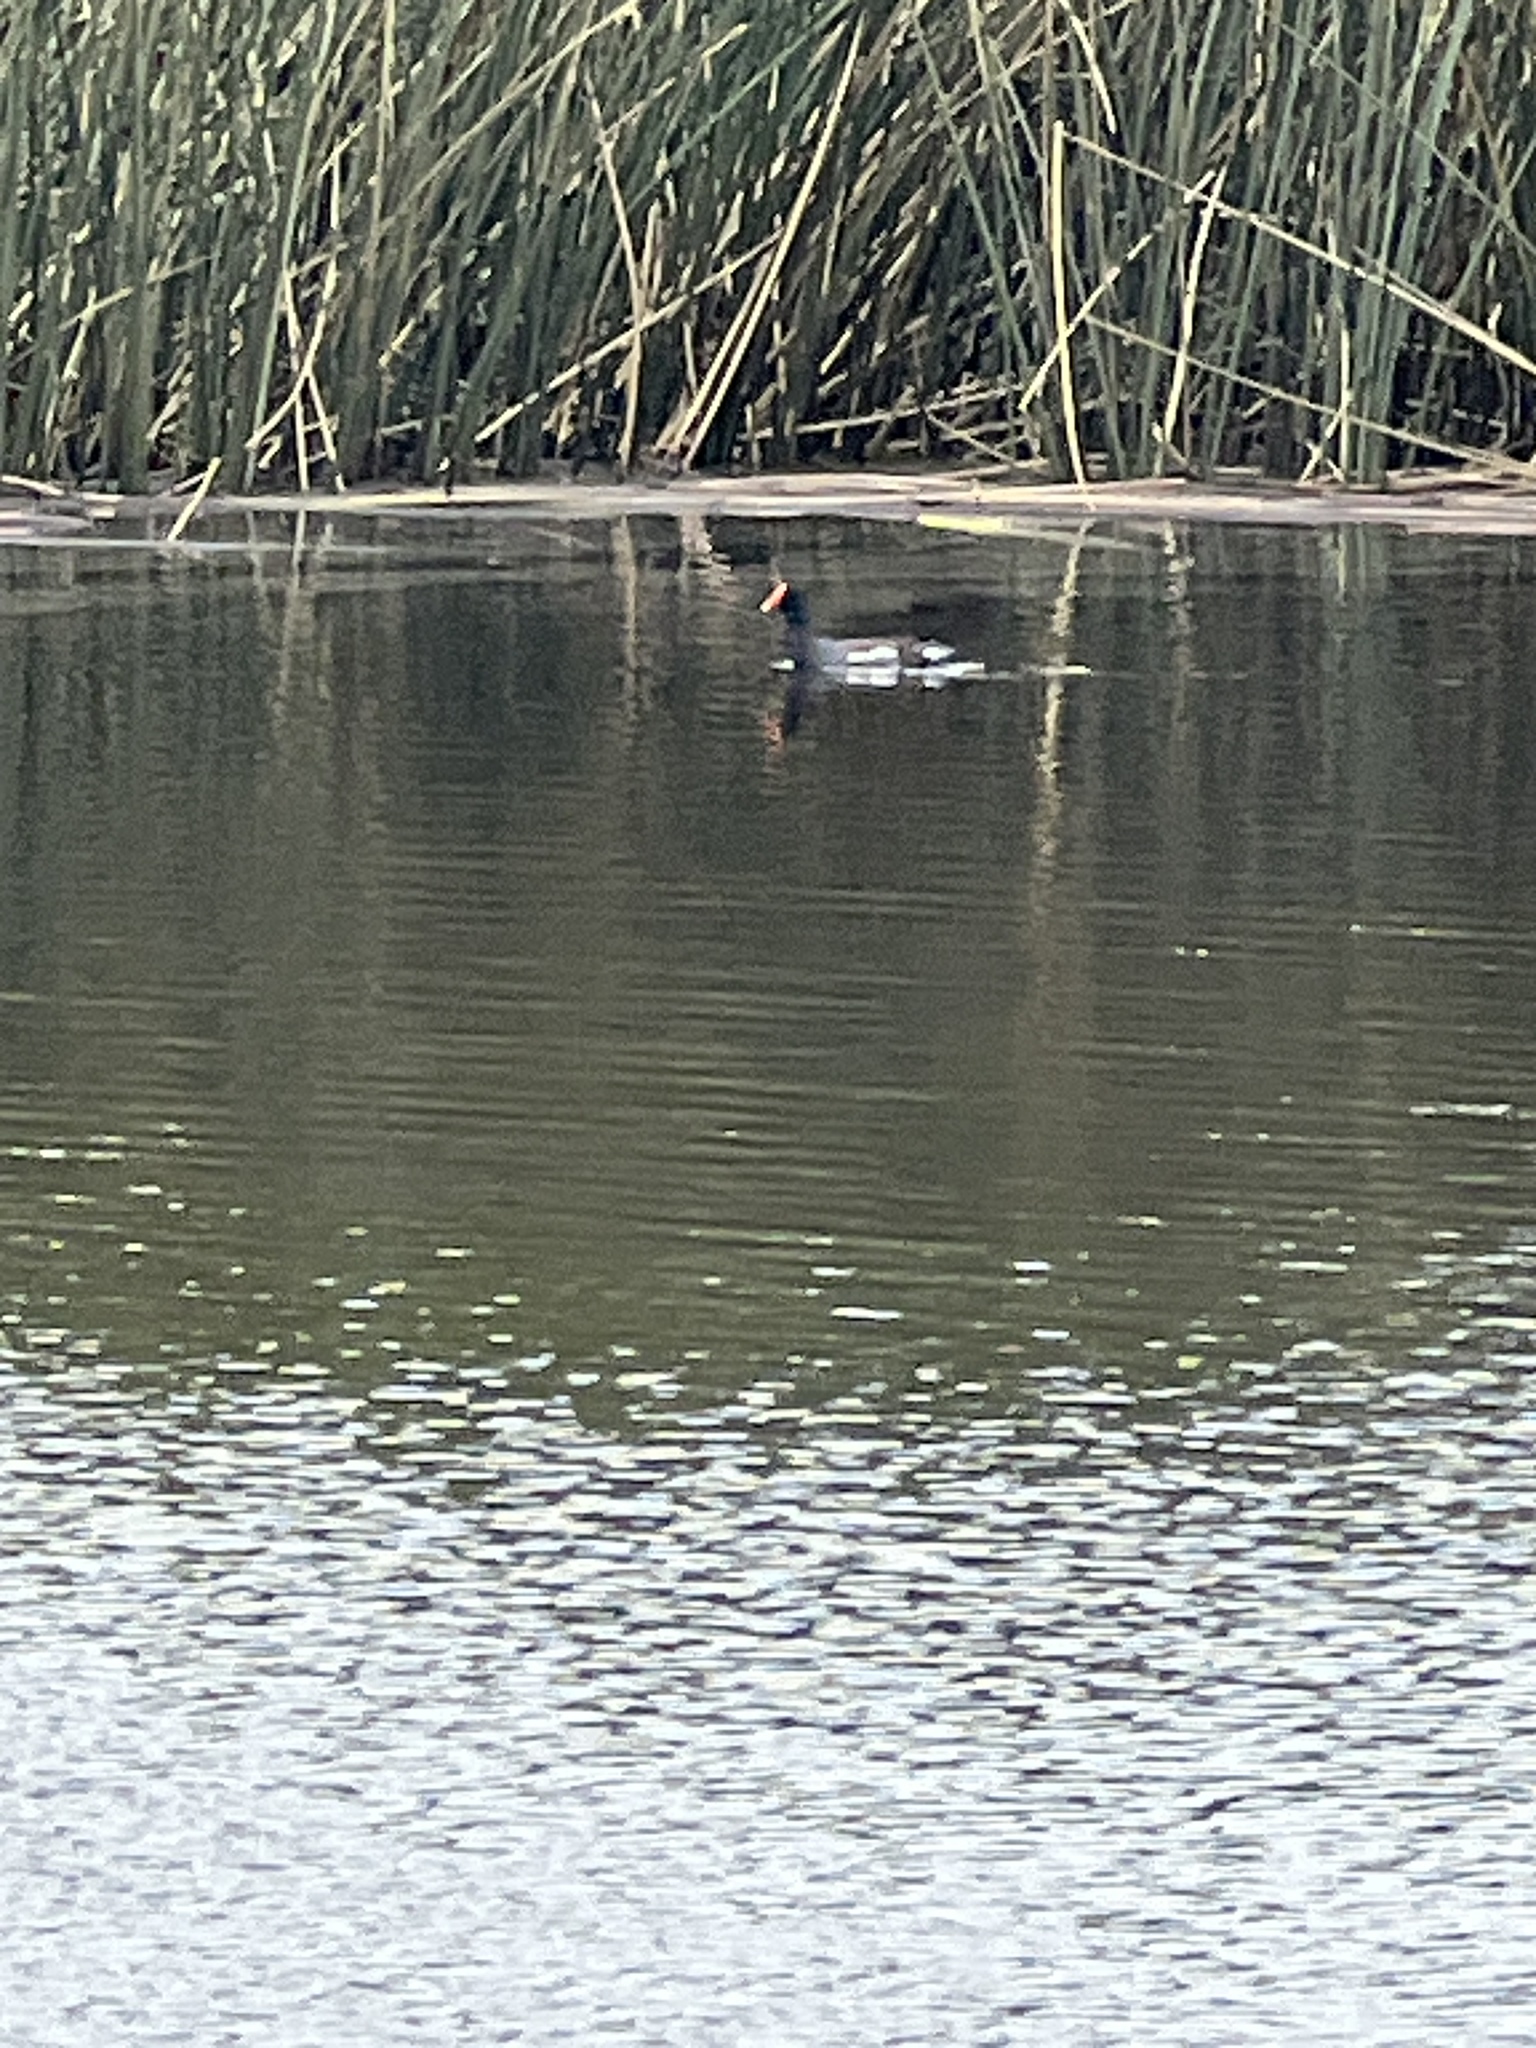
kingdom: Animalia
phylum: Chordata
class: Aves
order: Gruiformes
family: Rallidae
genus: Gallinula
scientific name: Gallinula chloropus
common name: Common moorhen
